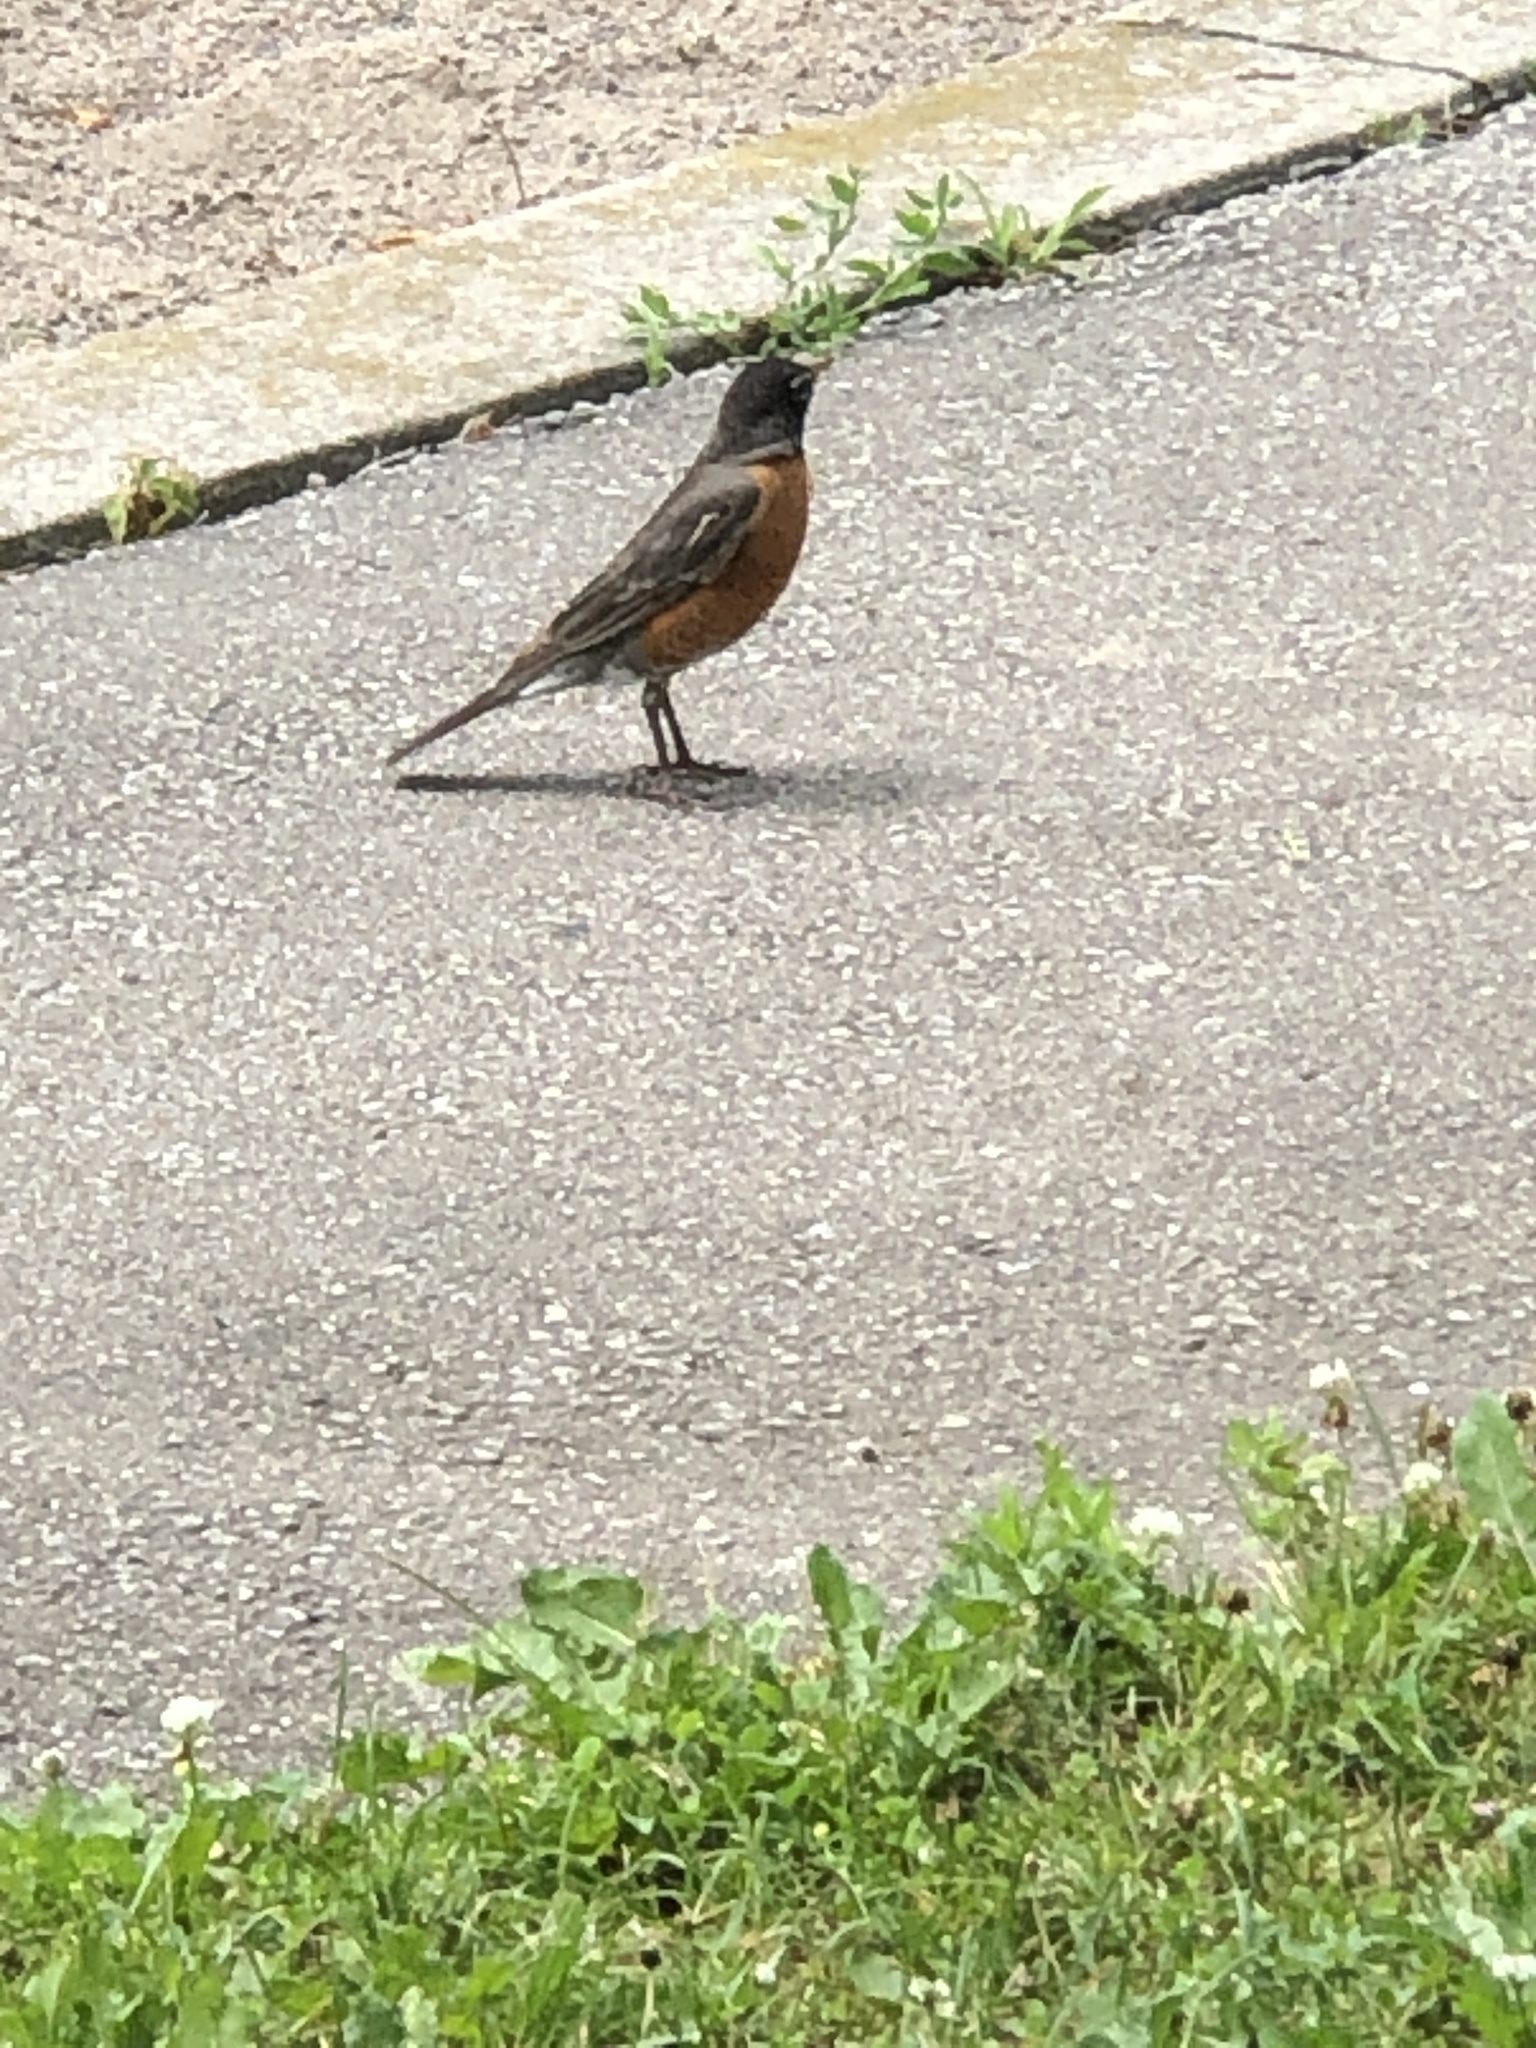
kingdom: Animalia
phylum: Chordata
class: Aves
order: Passeriformes
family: Turdidae
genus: Turdus
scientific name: Turdus migratorius
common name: American robin
